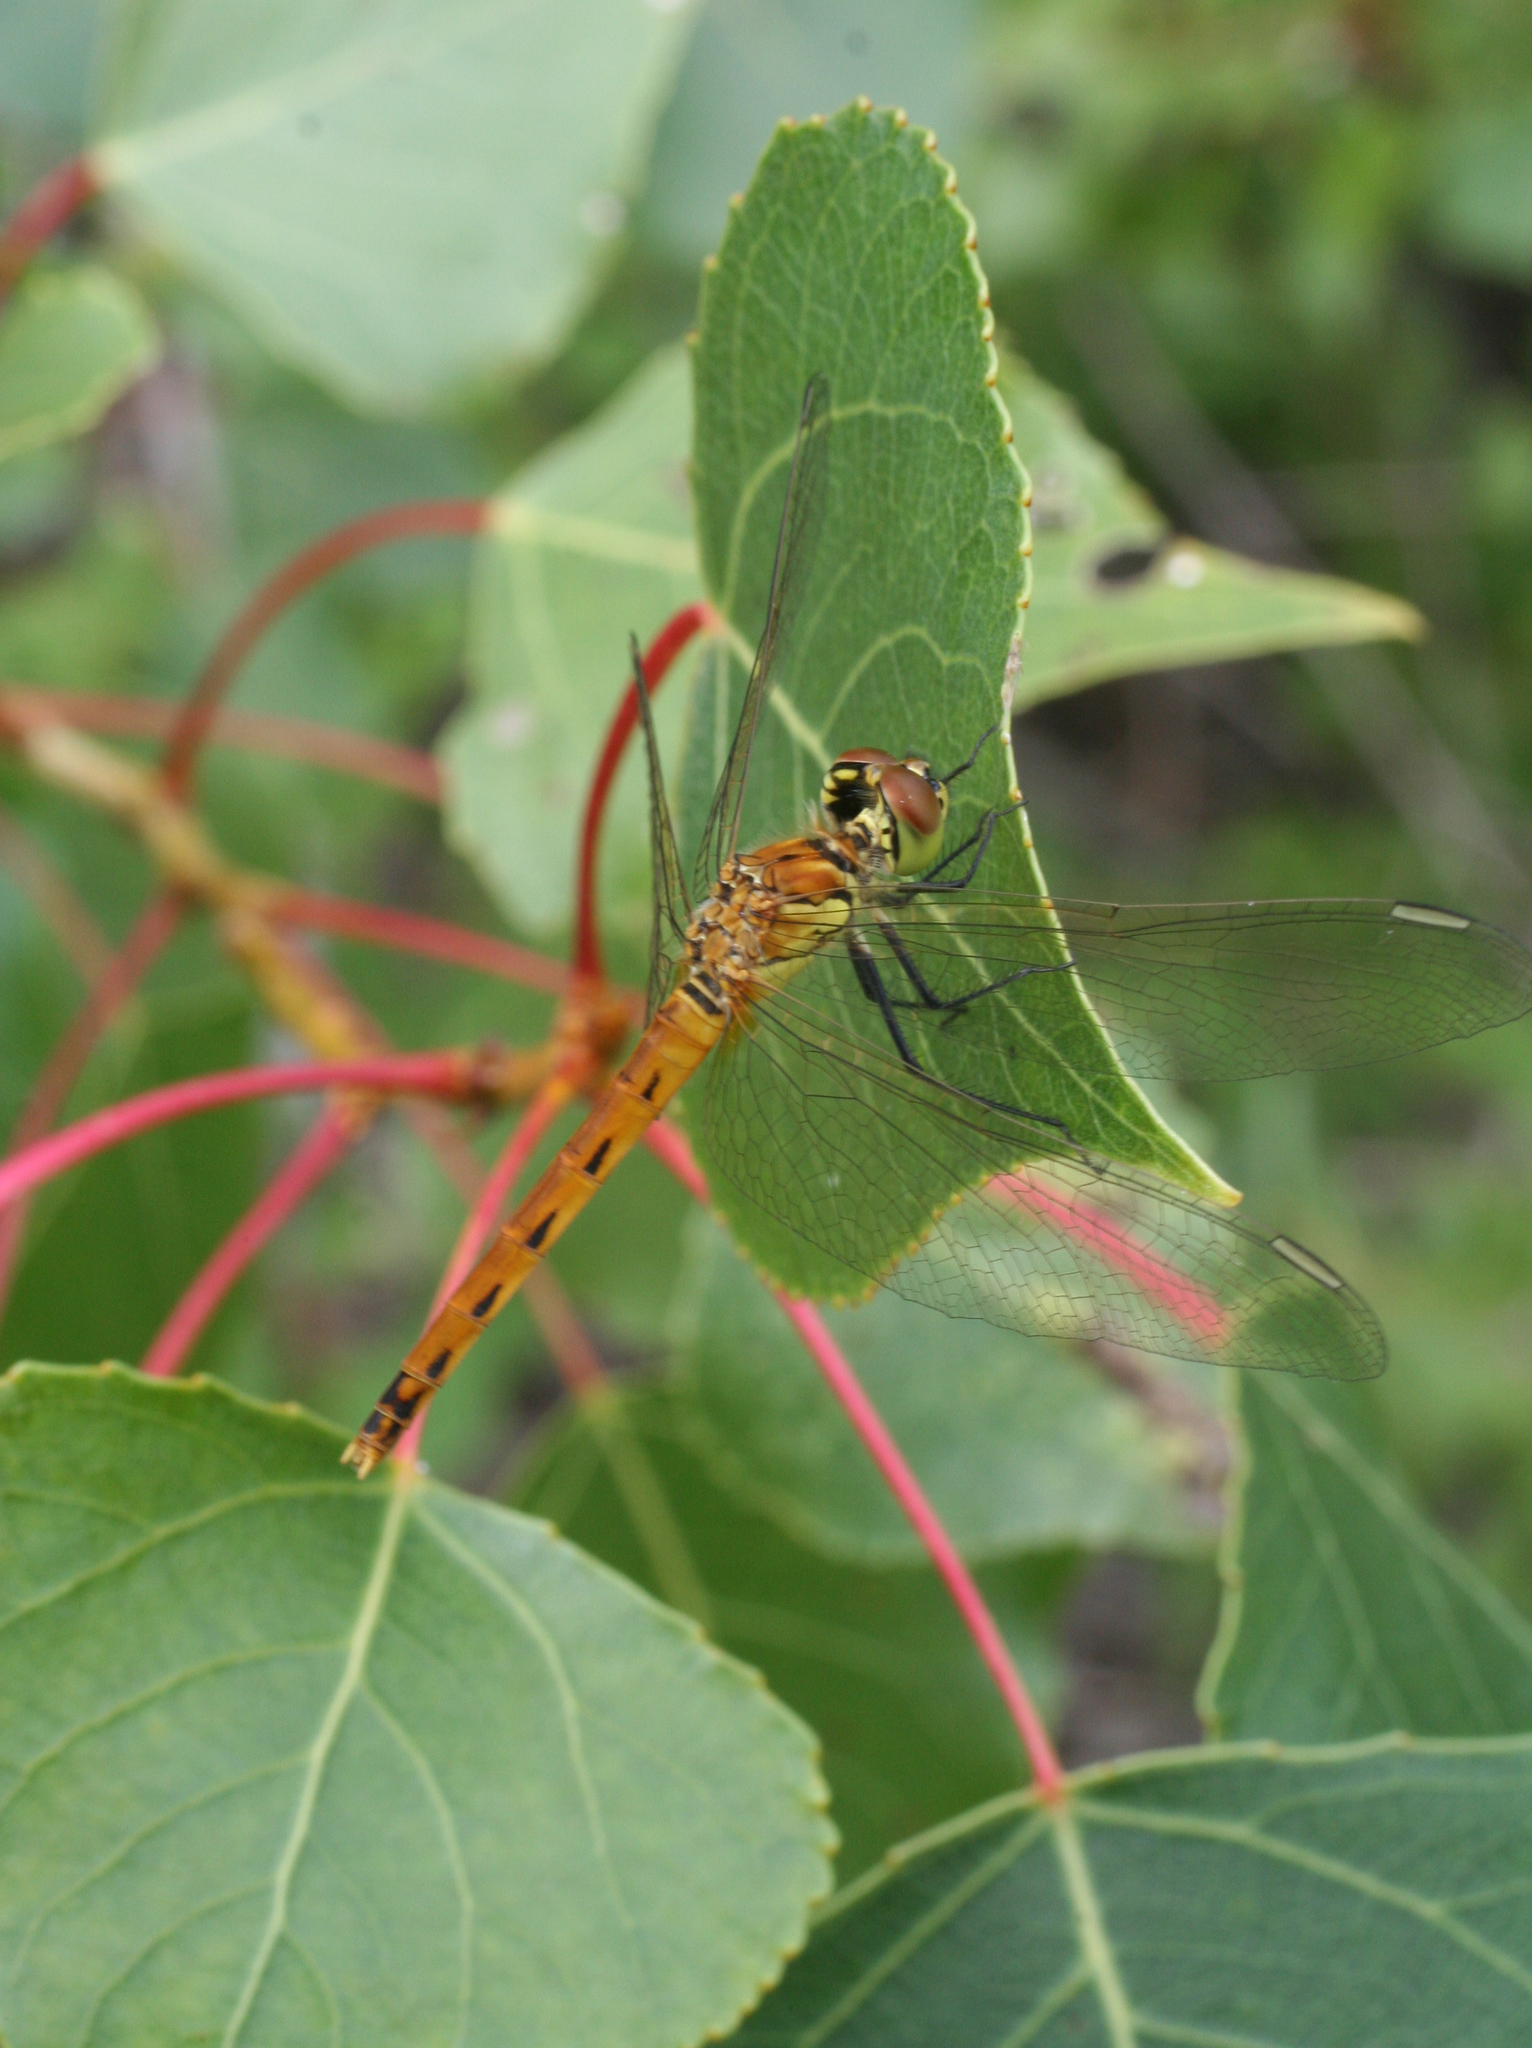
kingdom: Animalia
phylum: Arthropoda
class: Insecta
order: Odonata
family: Libellulidae
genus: Sympetrum
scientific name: Sympetrum depressiusculum
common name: Spotted darter
